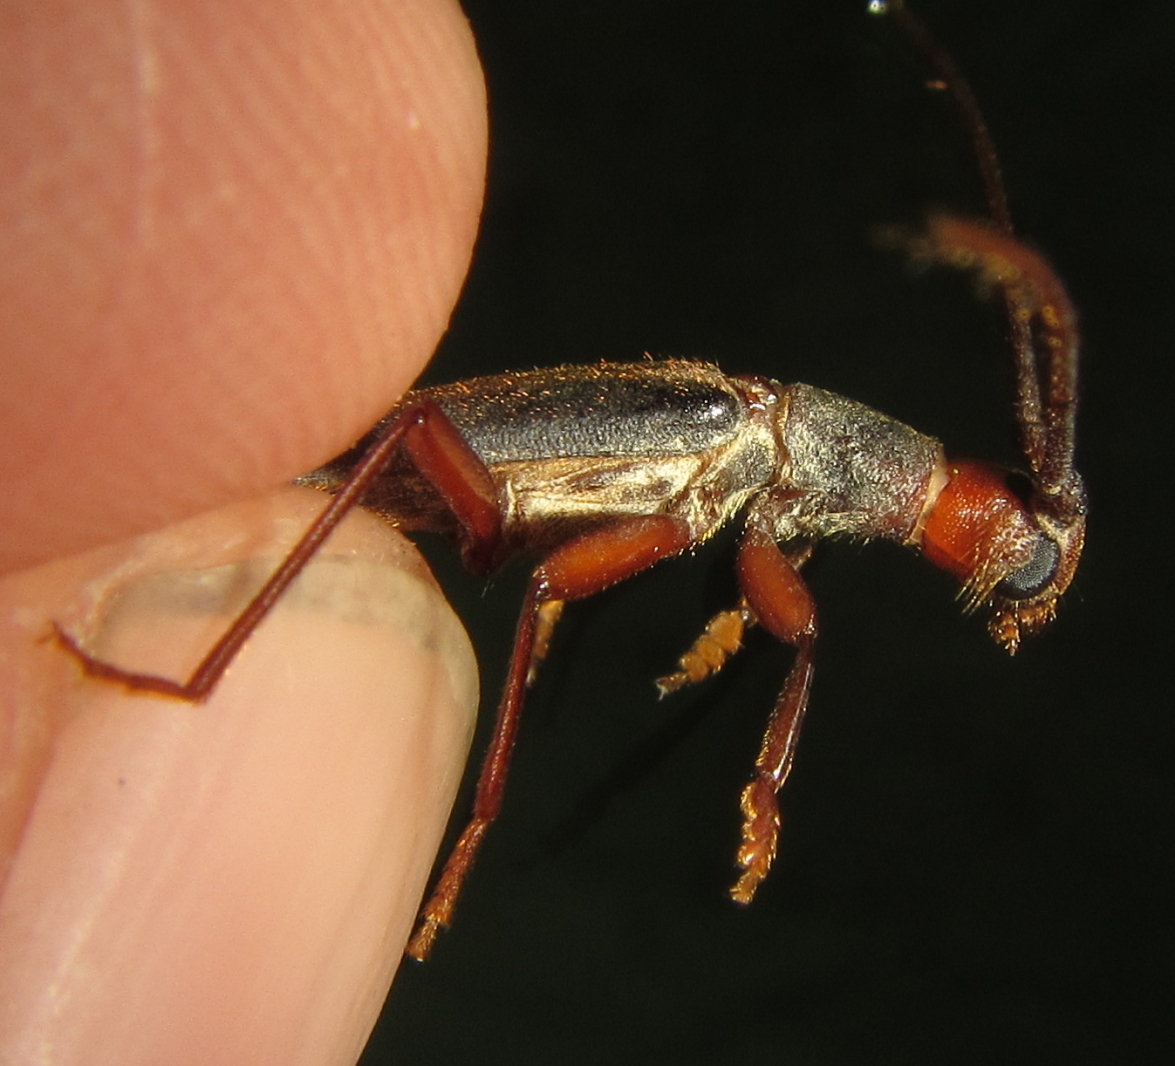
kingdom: Animalia
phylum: Arthropoda
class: Insecta
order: Coleoptera
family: Cerambycidae
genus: Diptychoeme
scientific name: Diptychoeme suturalis
